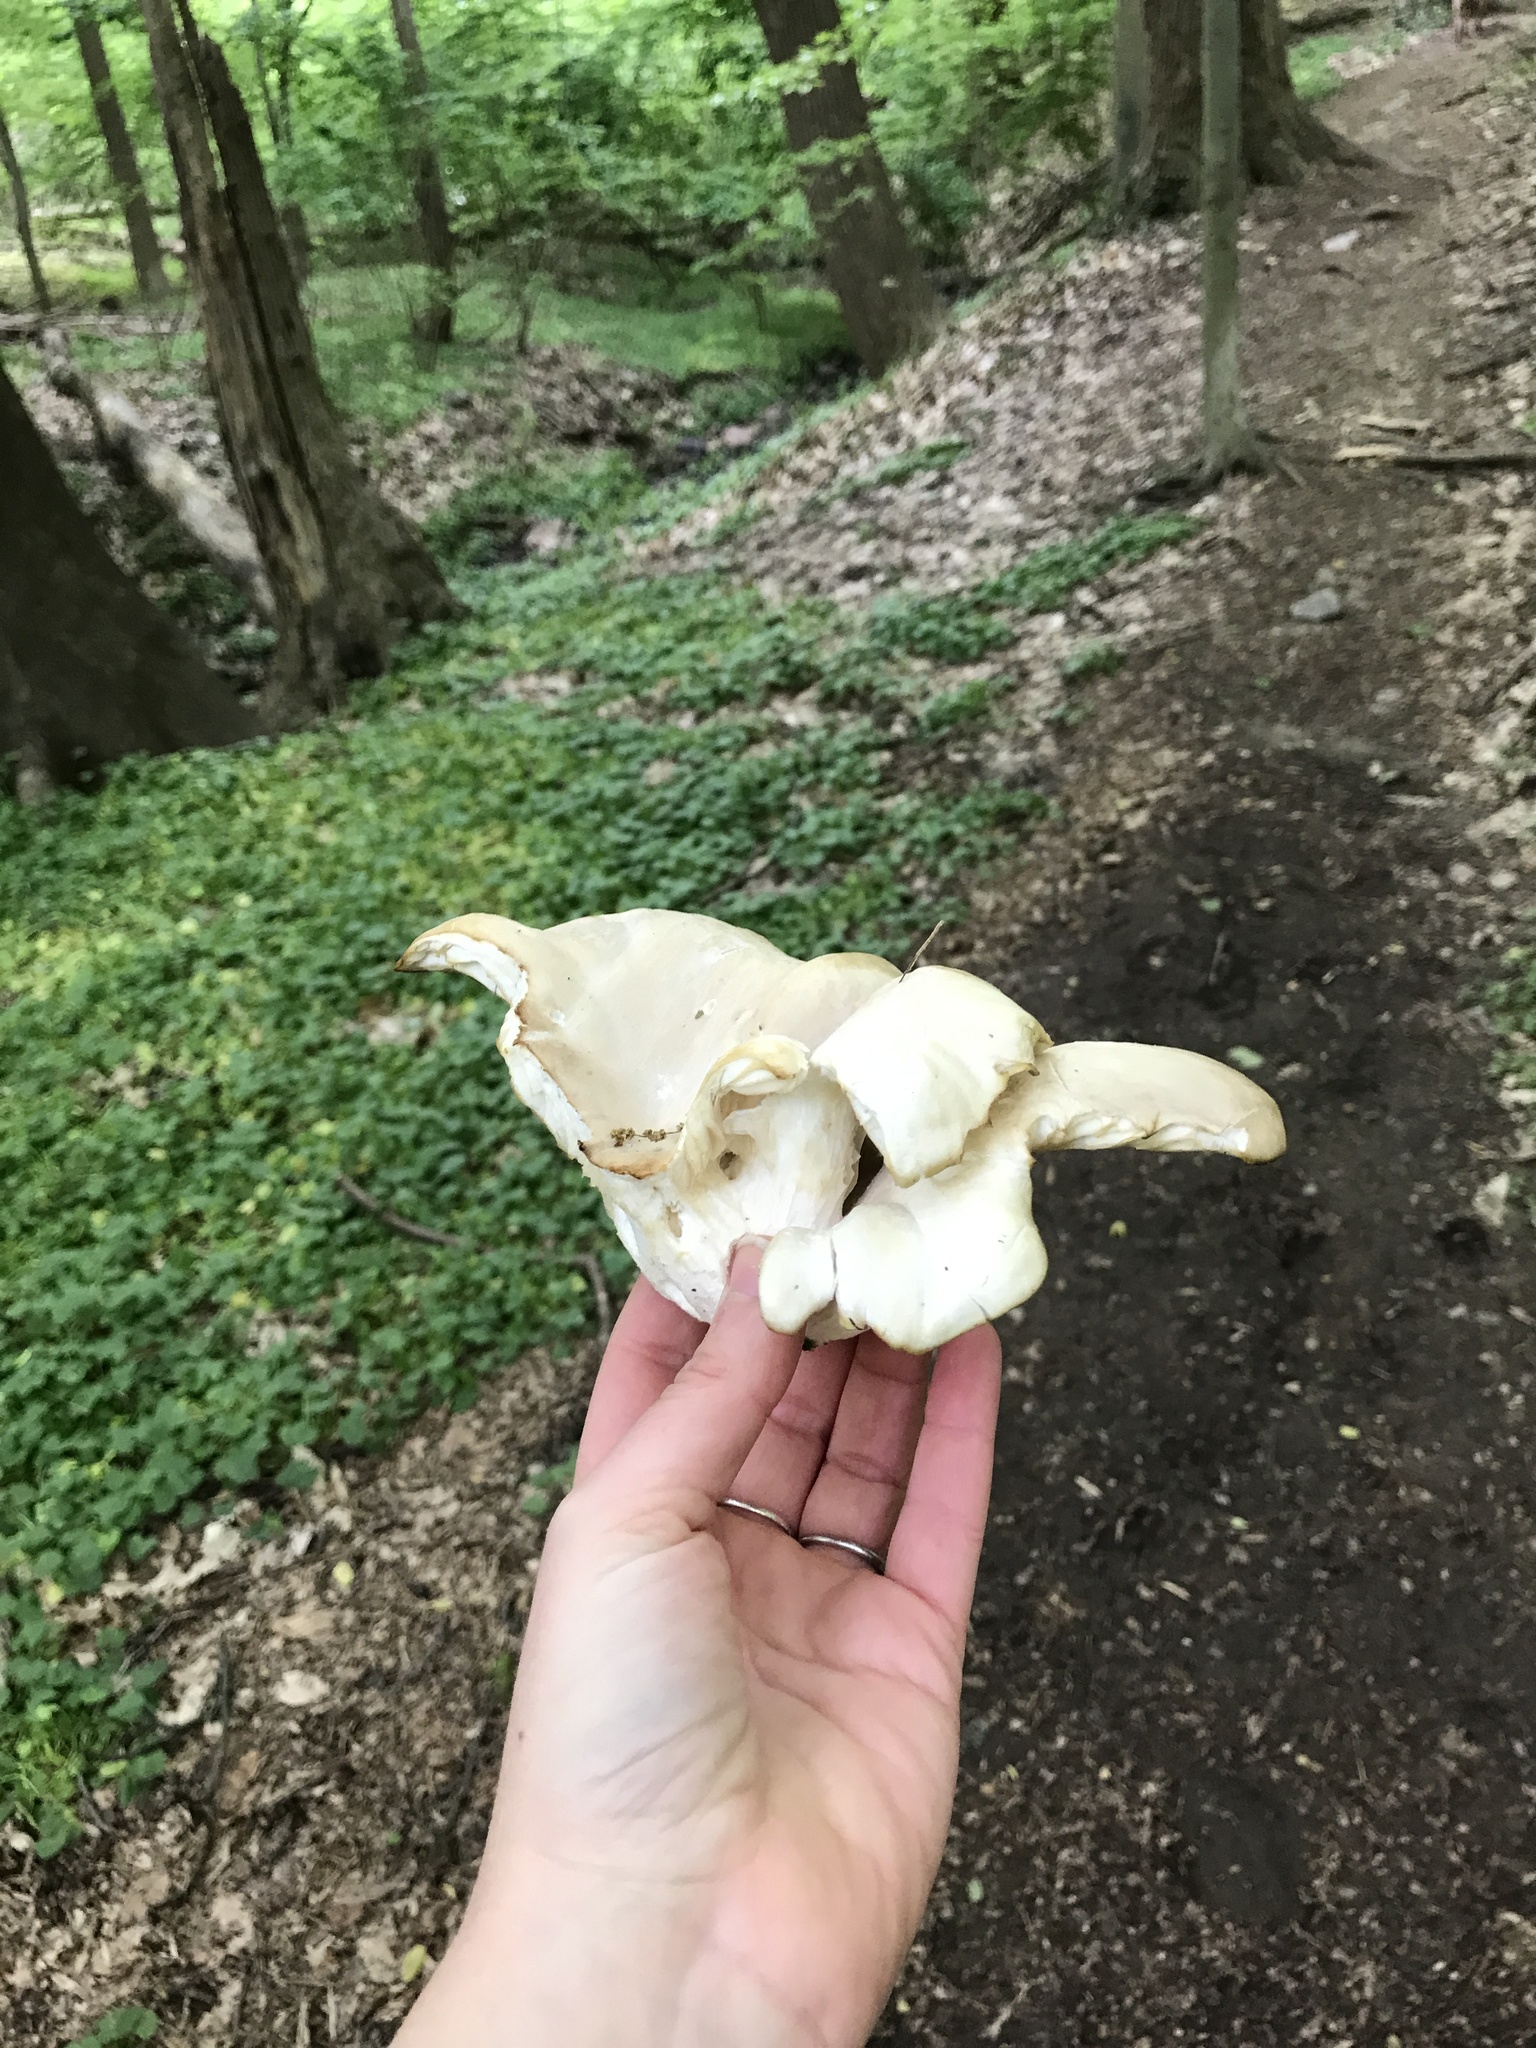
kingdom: Fungi
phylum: Basidiomycota
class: Agaricomycetes
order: Agaricales
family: Pleurotaceae
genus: Pleurotus
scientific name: Pleurotus ostreatus
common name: Oyster mushroom
